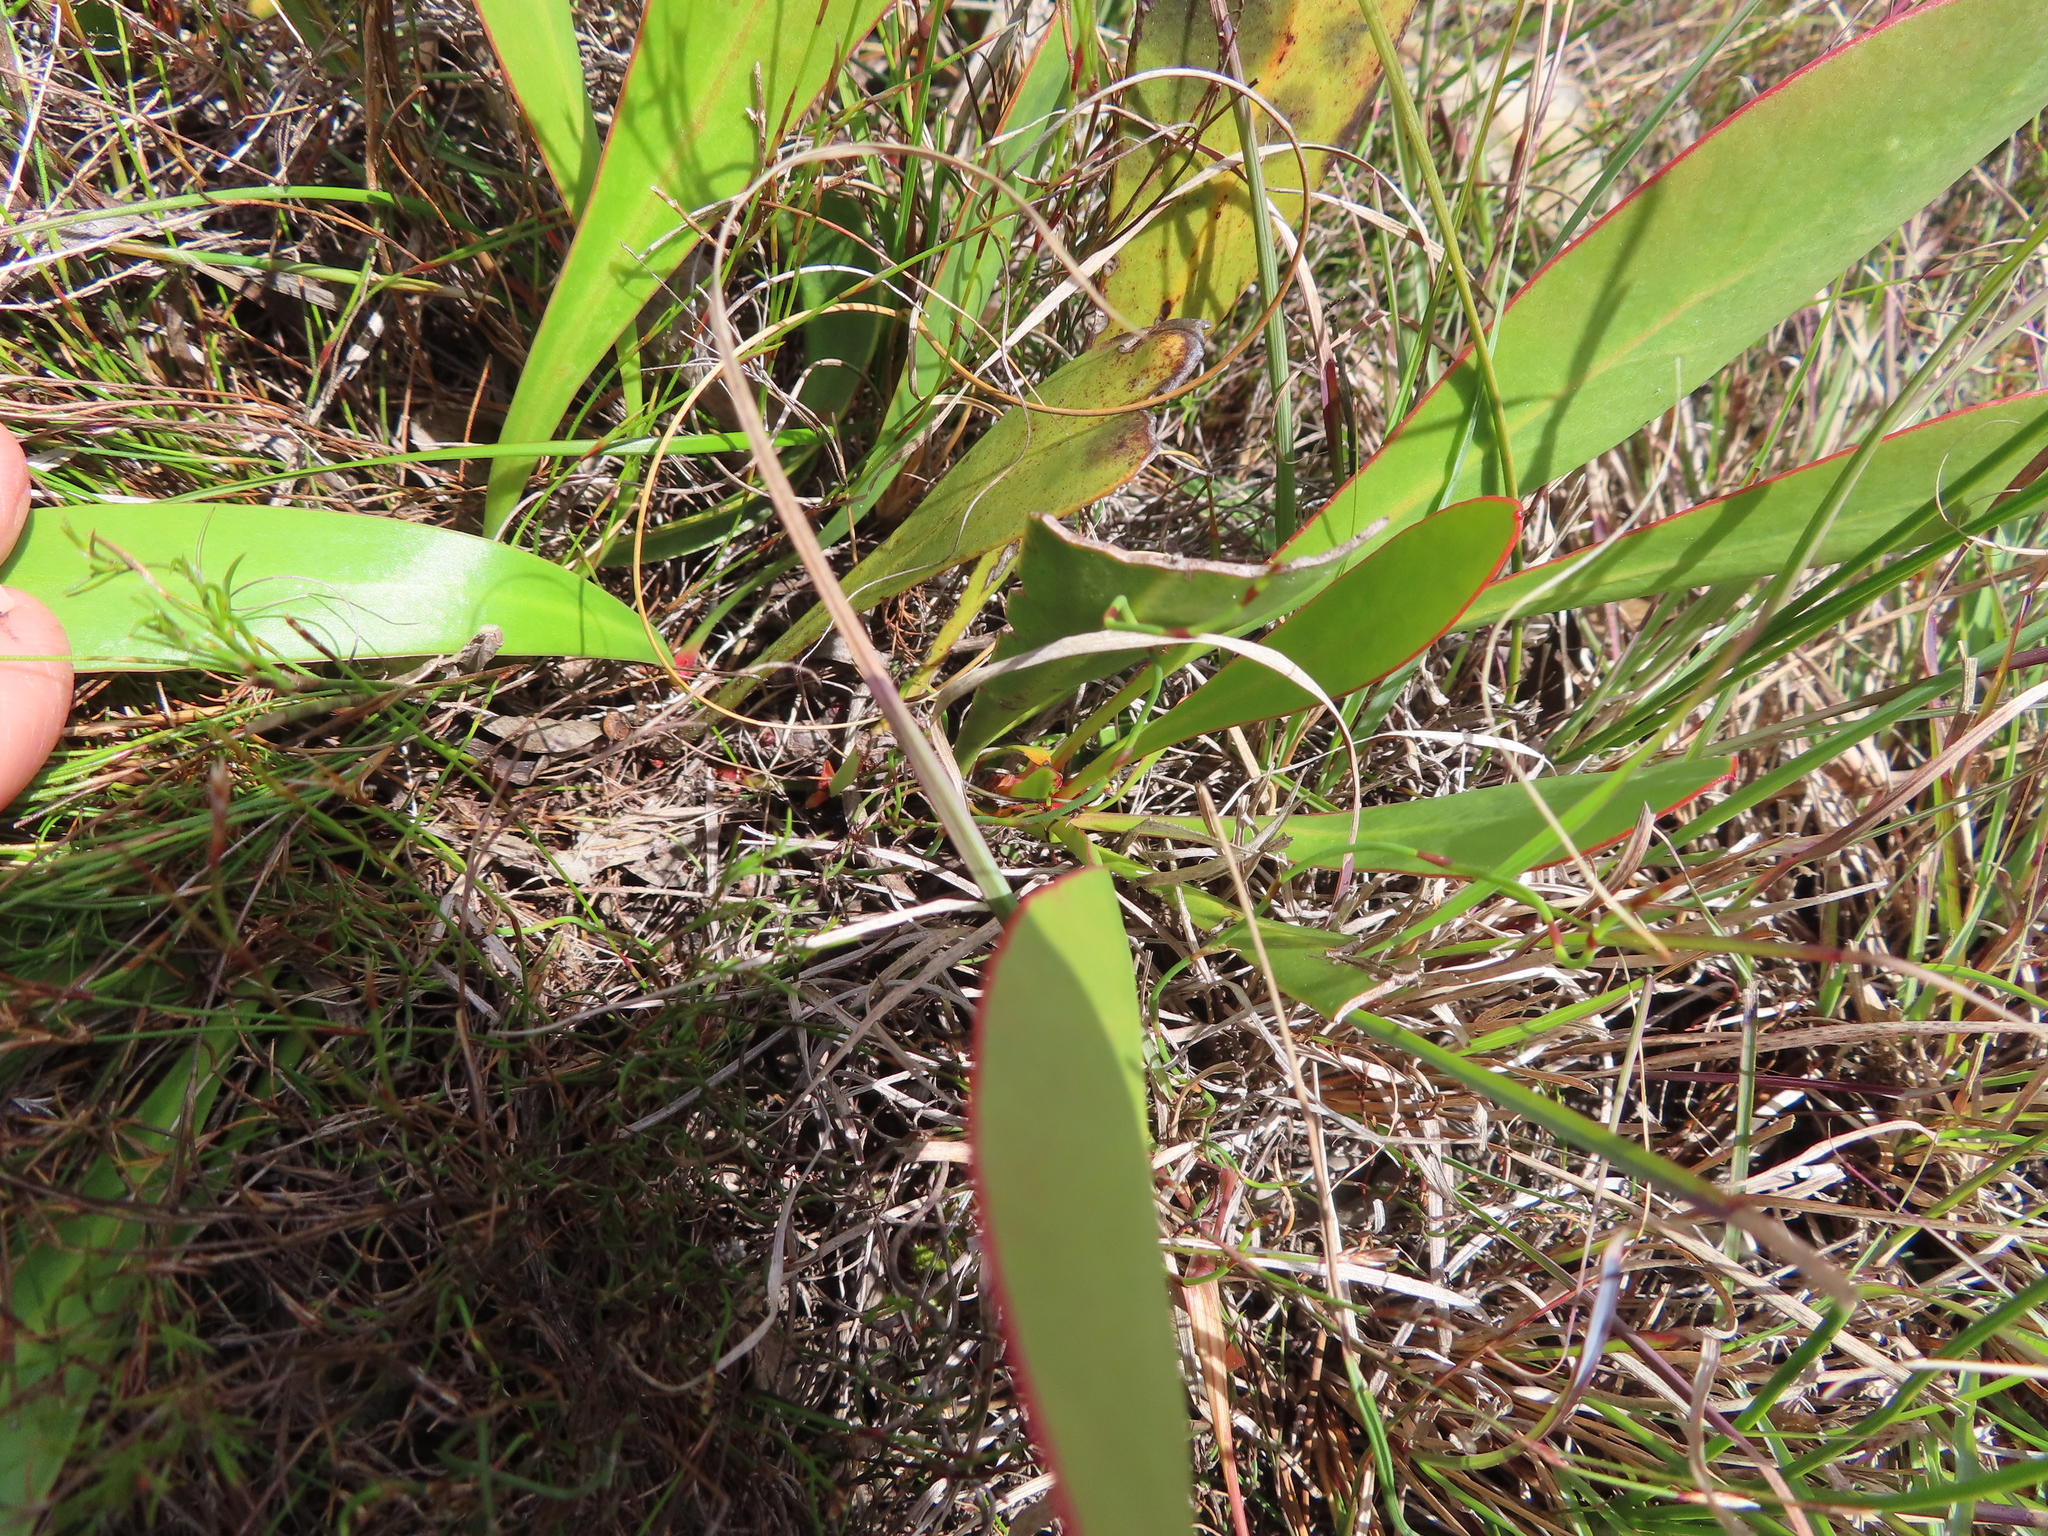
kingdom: Plantae
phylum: Tracheophyta
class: Magnoliopsida
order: Proteales
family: Proteaceae
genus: Protea
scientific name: Protea acaulos
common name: Common ground sugarbush
